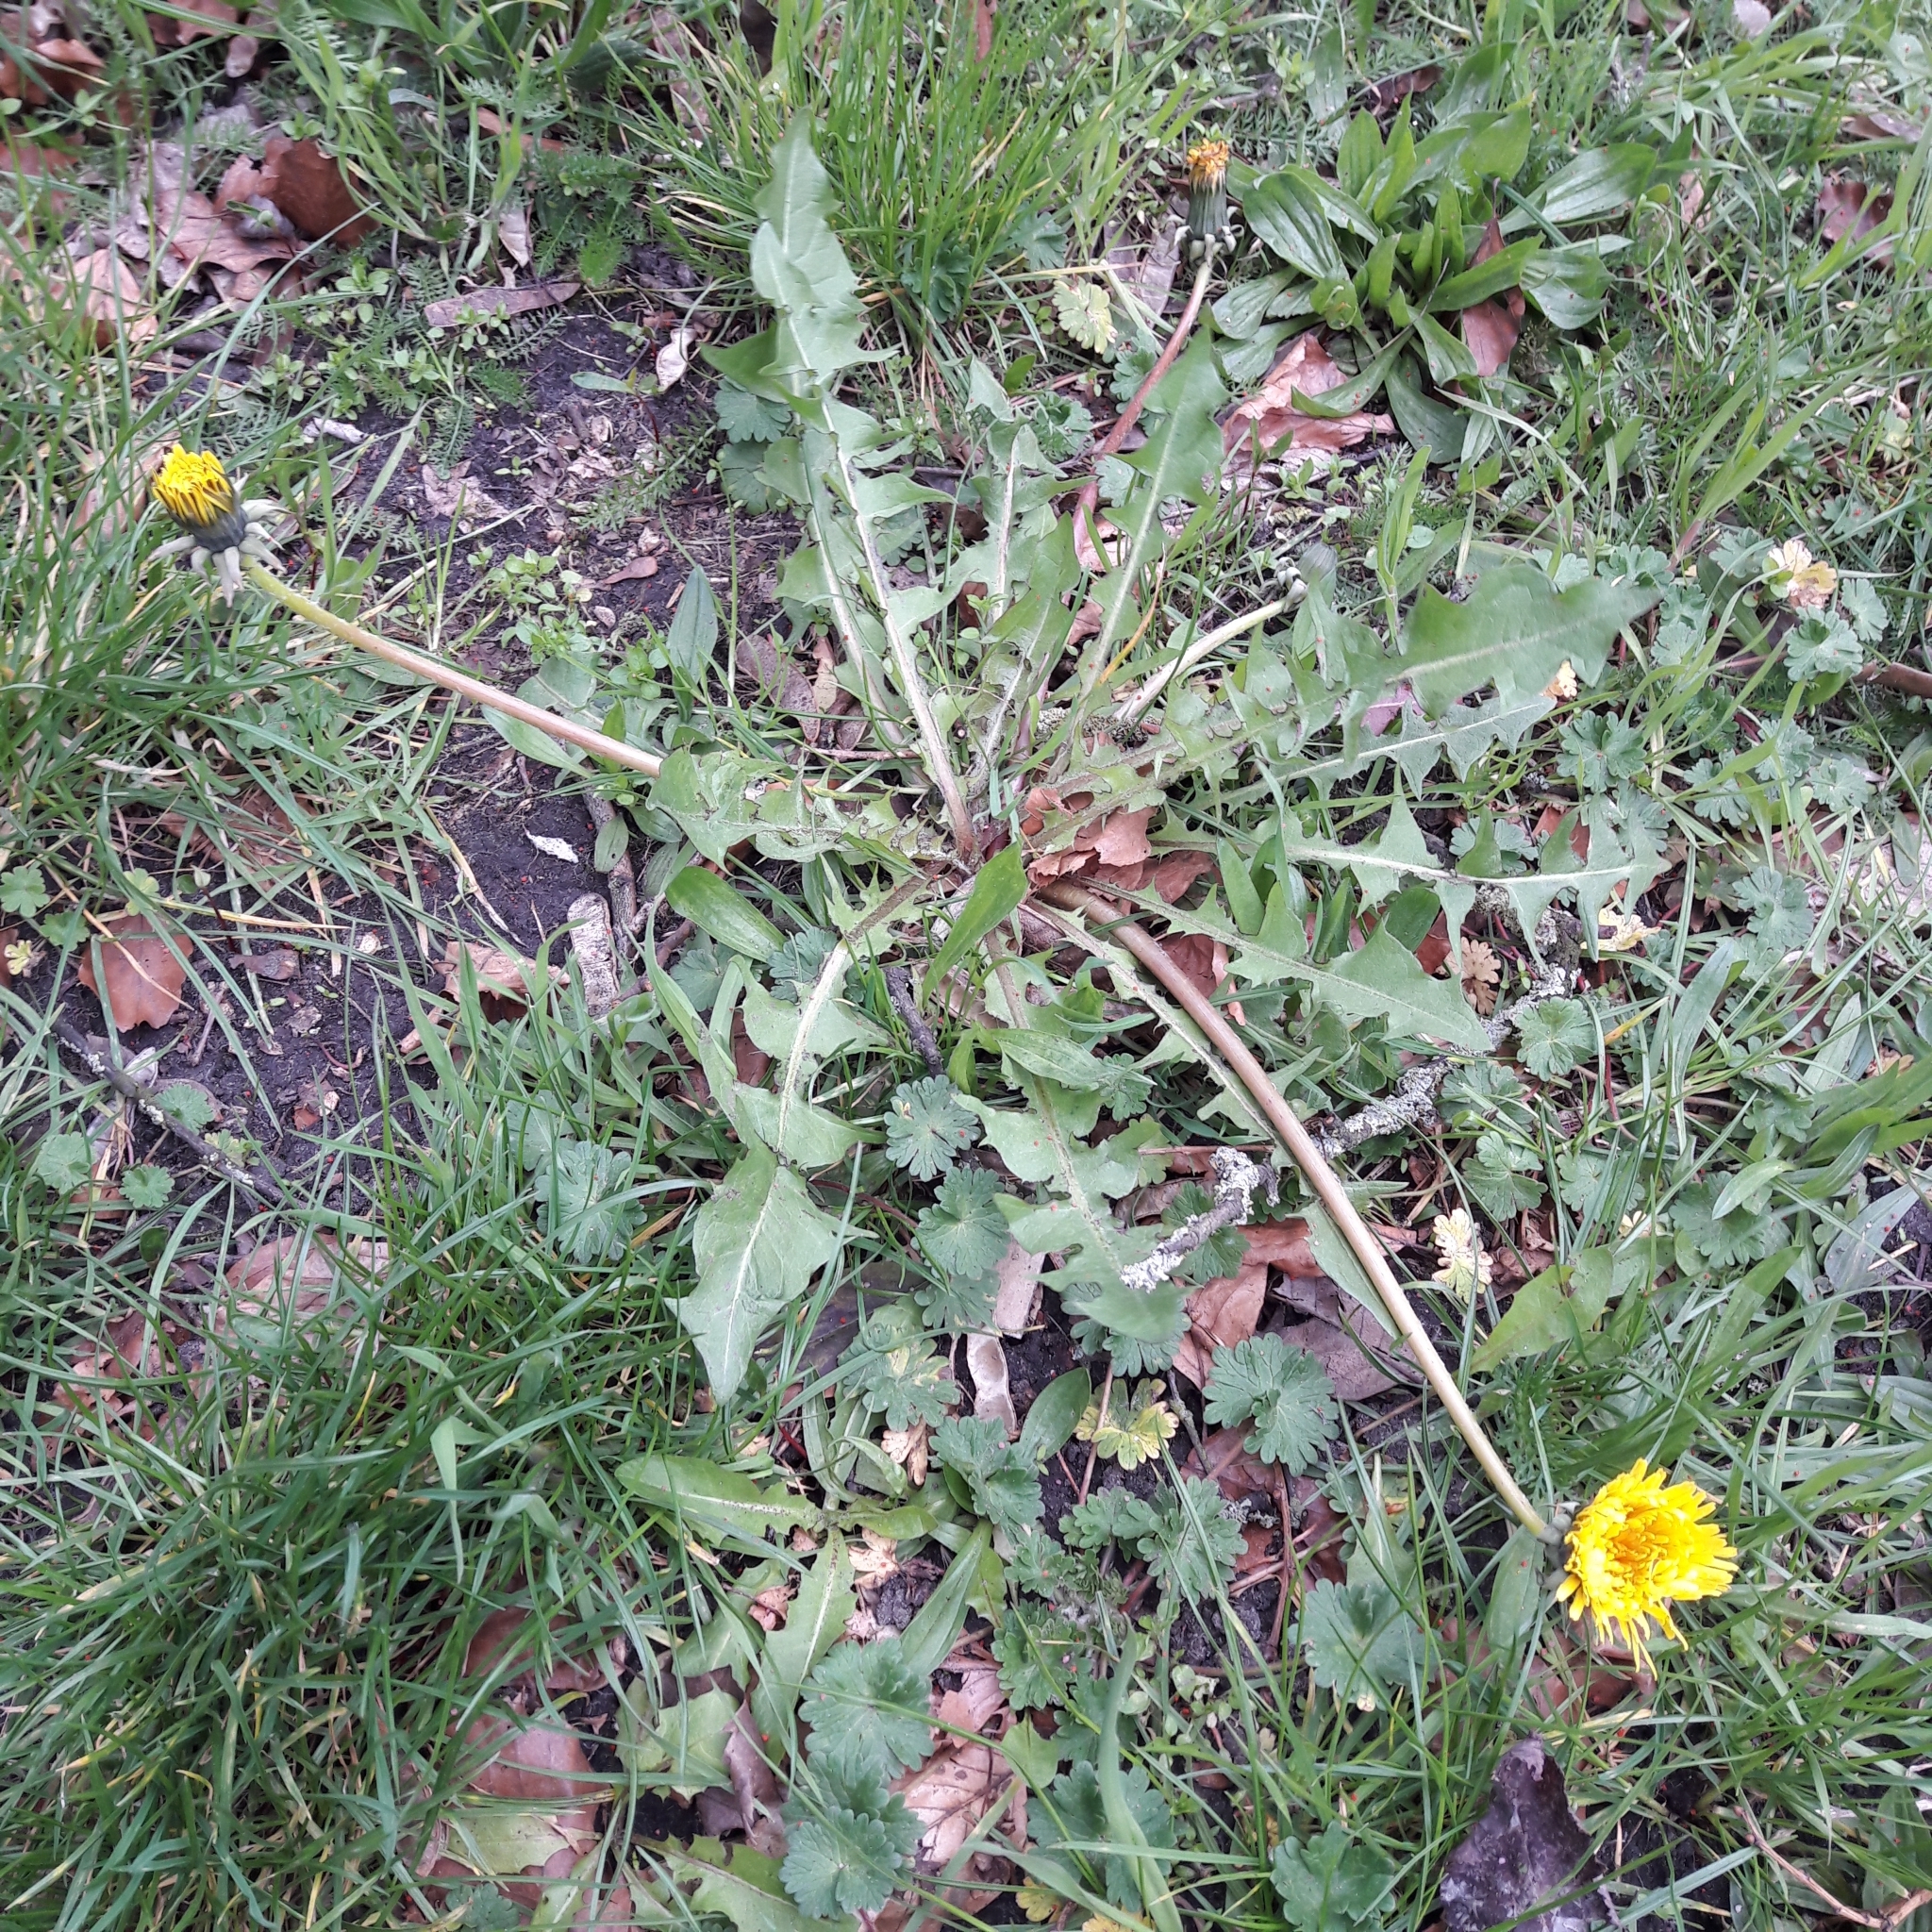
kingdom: Plantae
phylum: Tracheophyta
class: Magnoliopsida
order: Asterales
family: Asteraceae
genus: Taraxacum
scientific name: Taraxacum officinale
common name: Common dandelion
